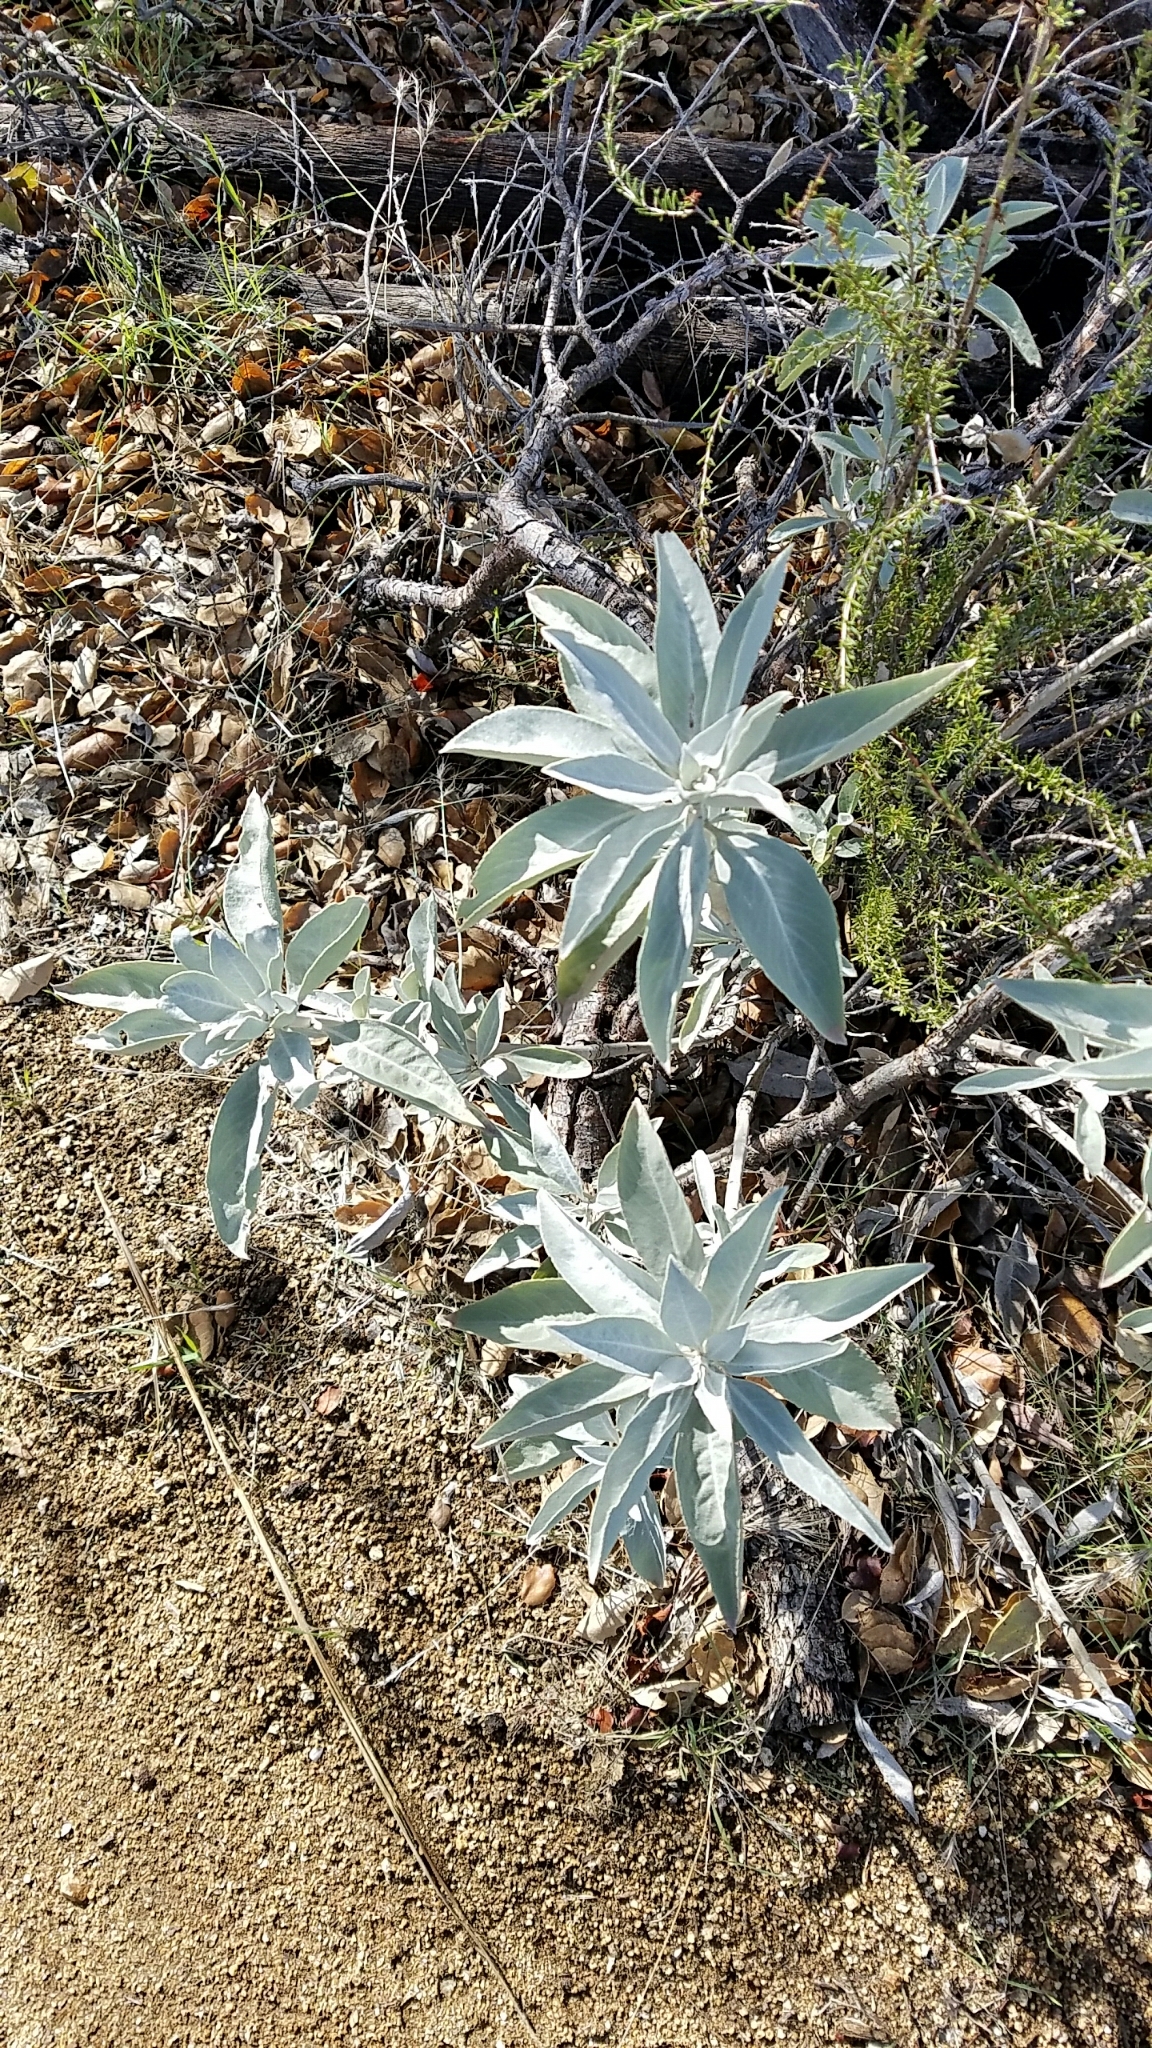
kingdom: Plantae
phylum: Tracheophyta
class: Magnoliopsida
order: Lamiales
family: Lamiaceae
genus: Salvia
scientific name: Salvia apiana
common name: White sage
